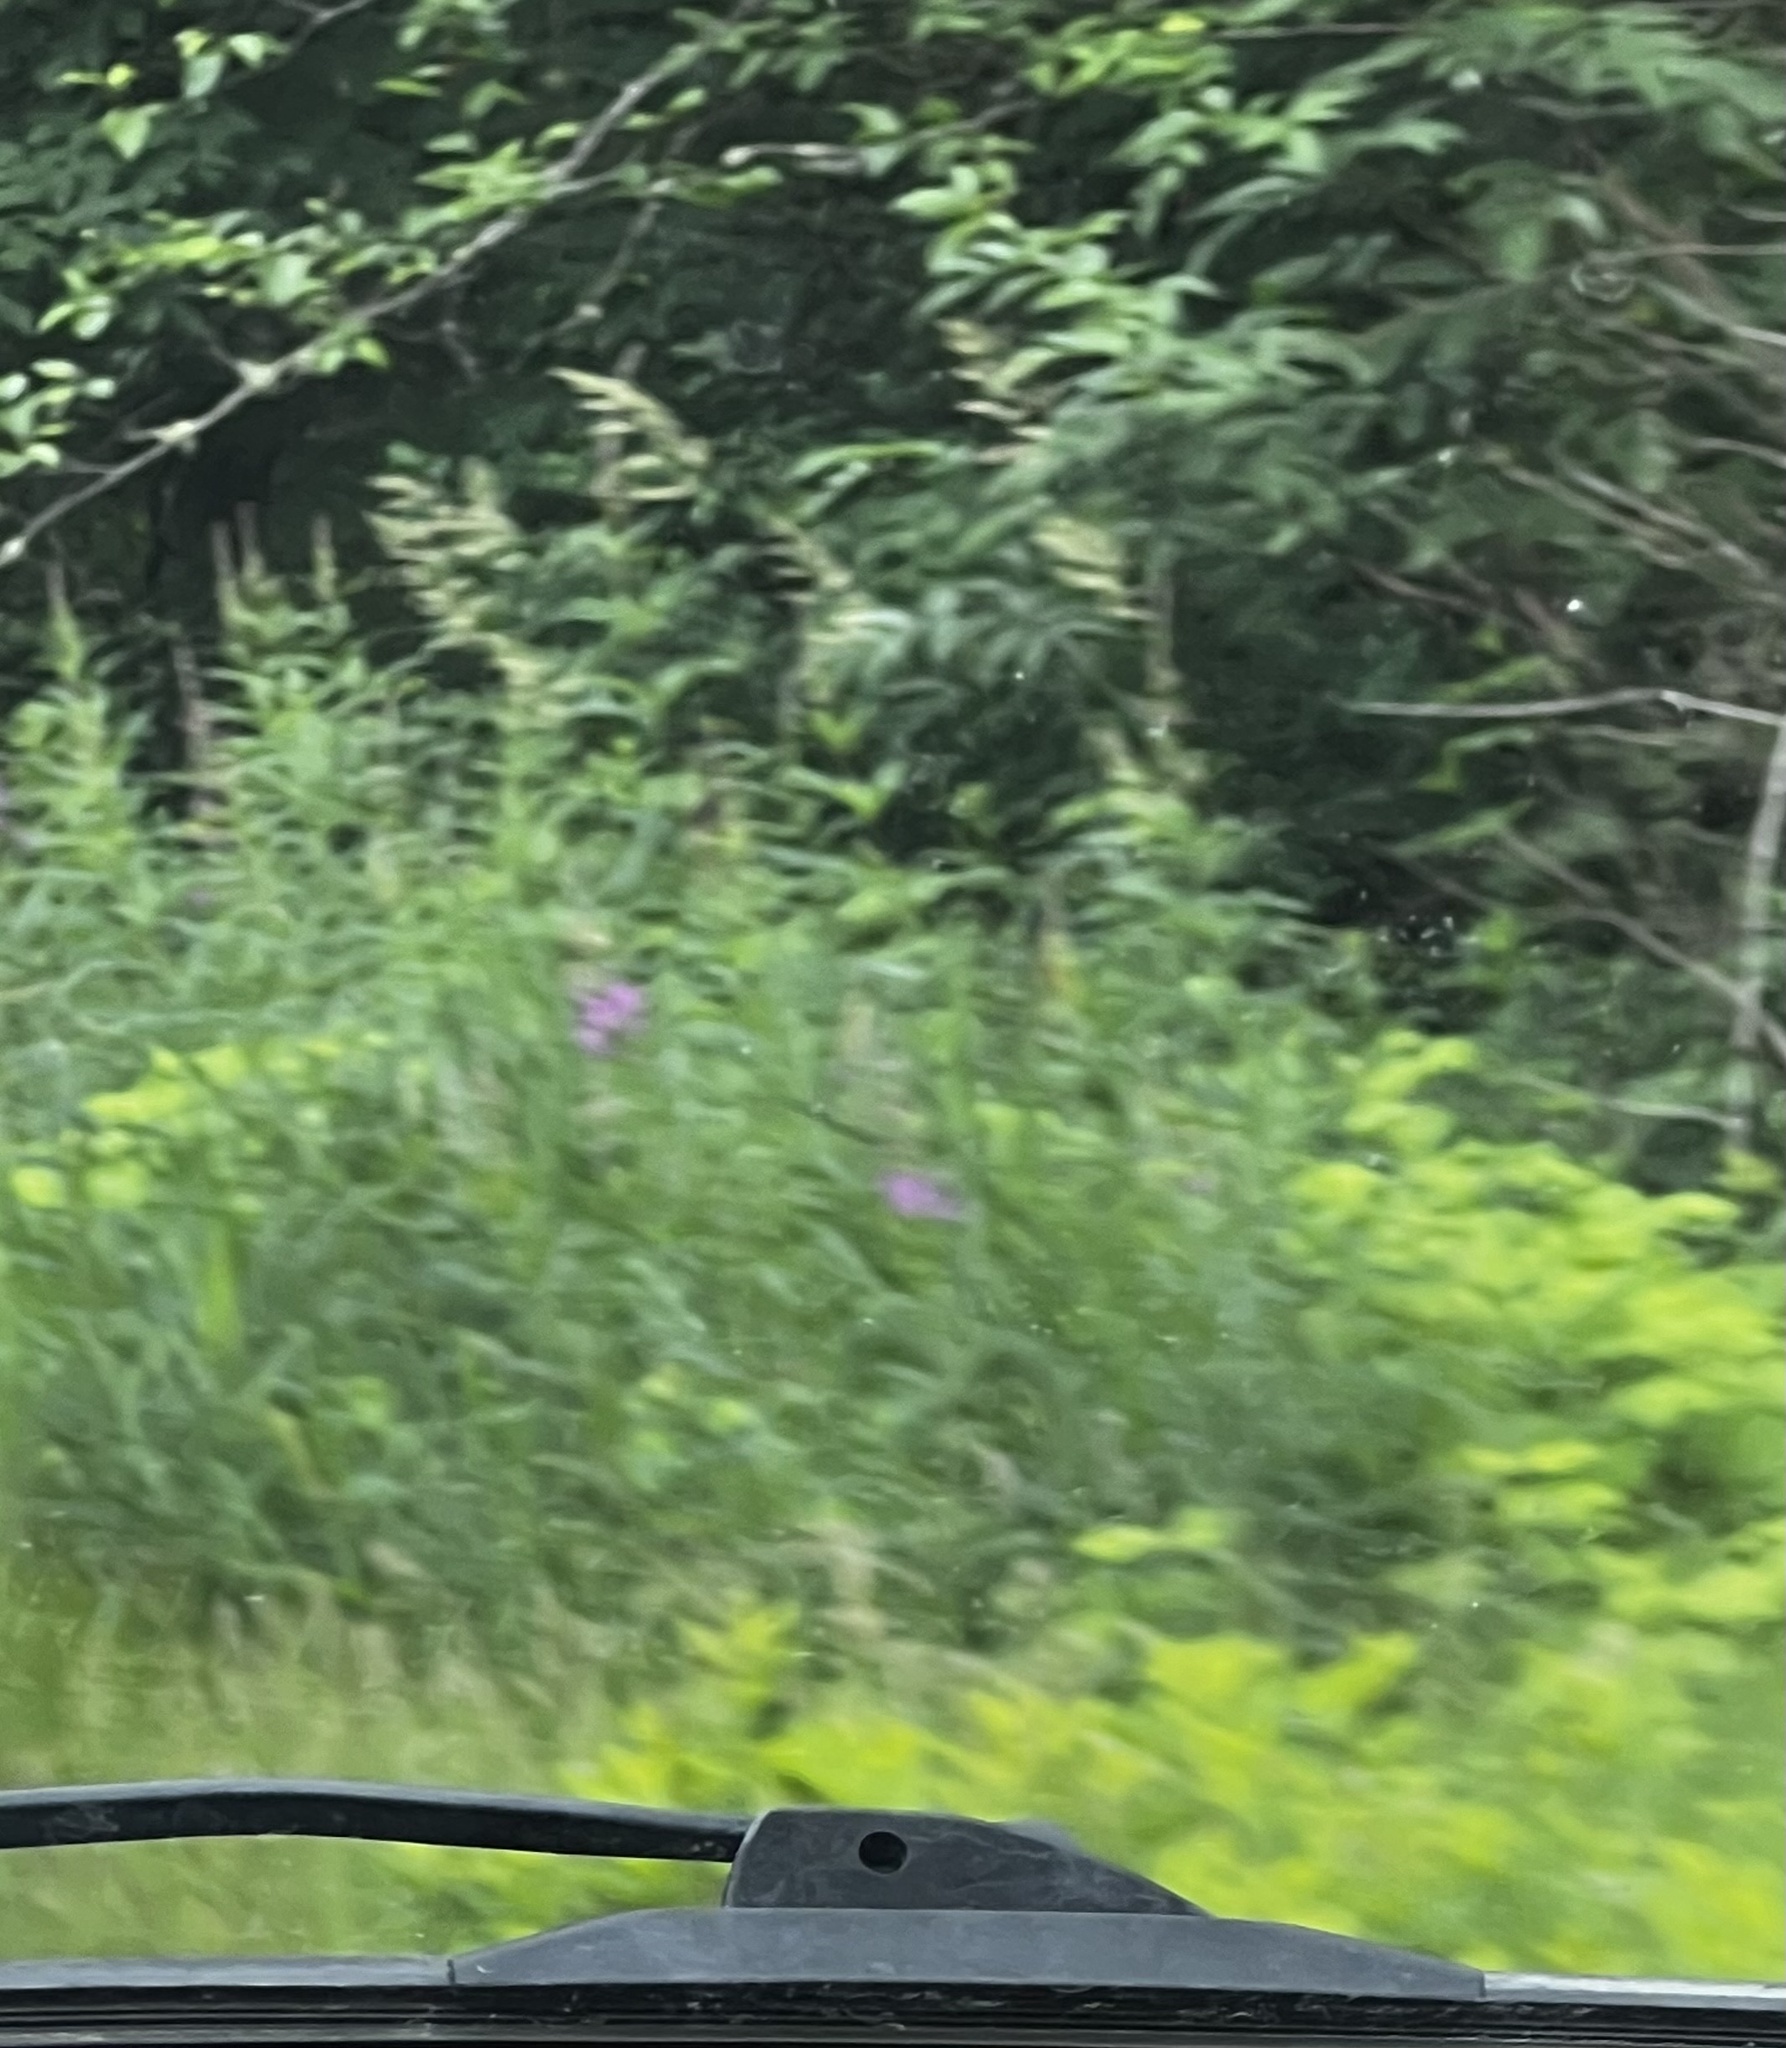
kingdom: Plantae
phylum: Tracheophyta
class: Magnoliopsida
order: Myrtales
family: Onagraceae
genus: Chamaenerion
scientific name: Chamaenerion angustifolium
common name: Fireweed
